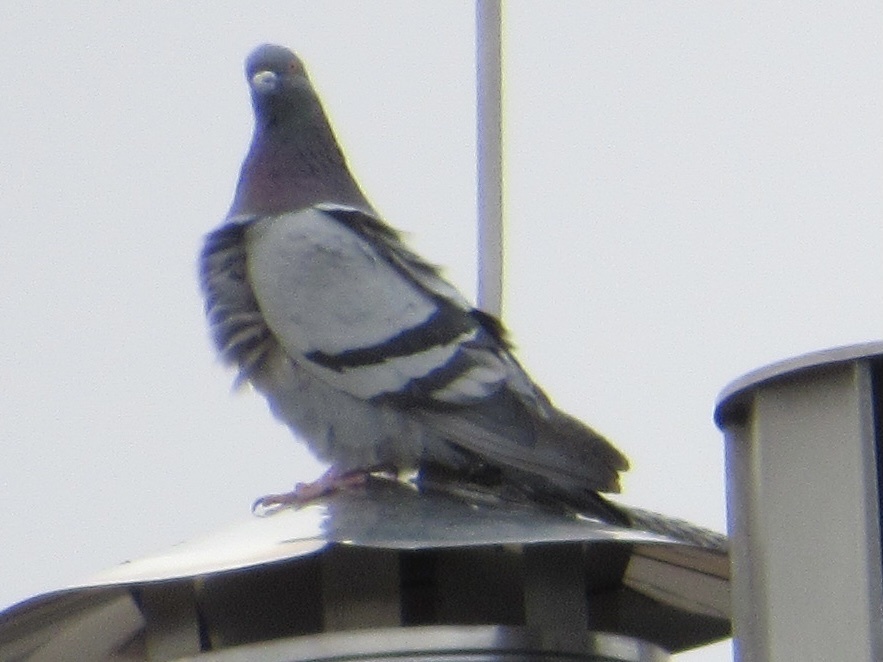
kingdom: Animalia
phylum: Chordata
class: Aves
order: Columbiformes
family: Columbidae
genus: Columba
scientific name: Columba livia
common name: Rock pigeon
